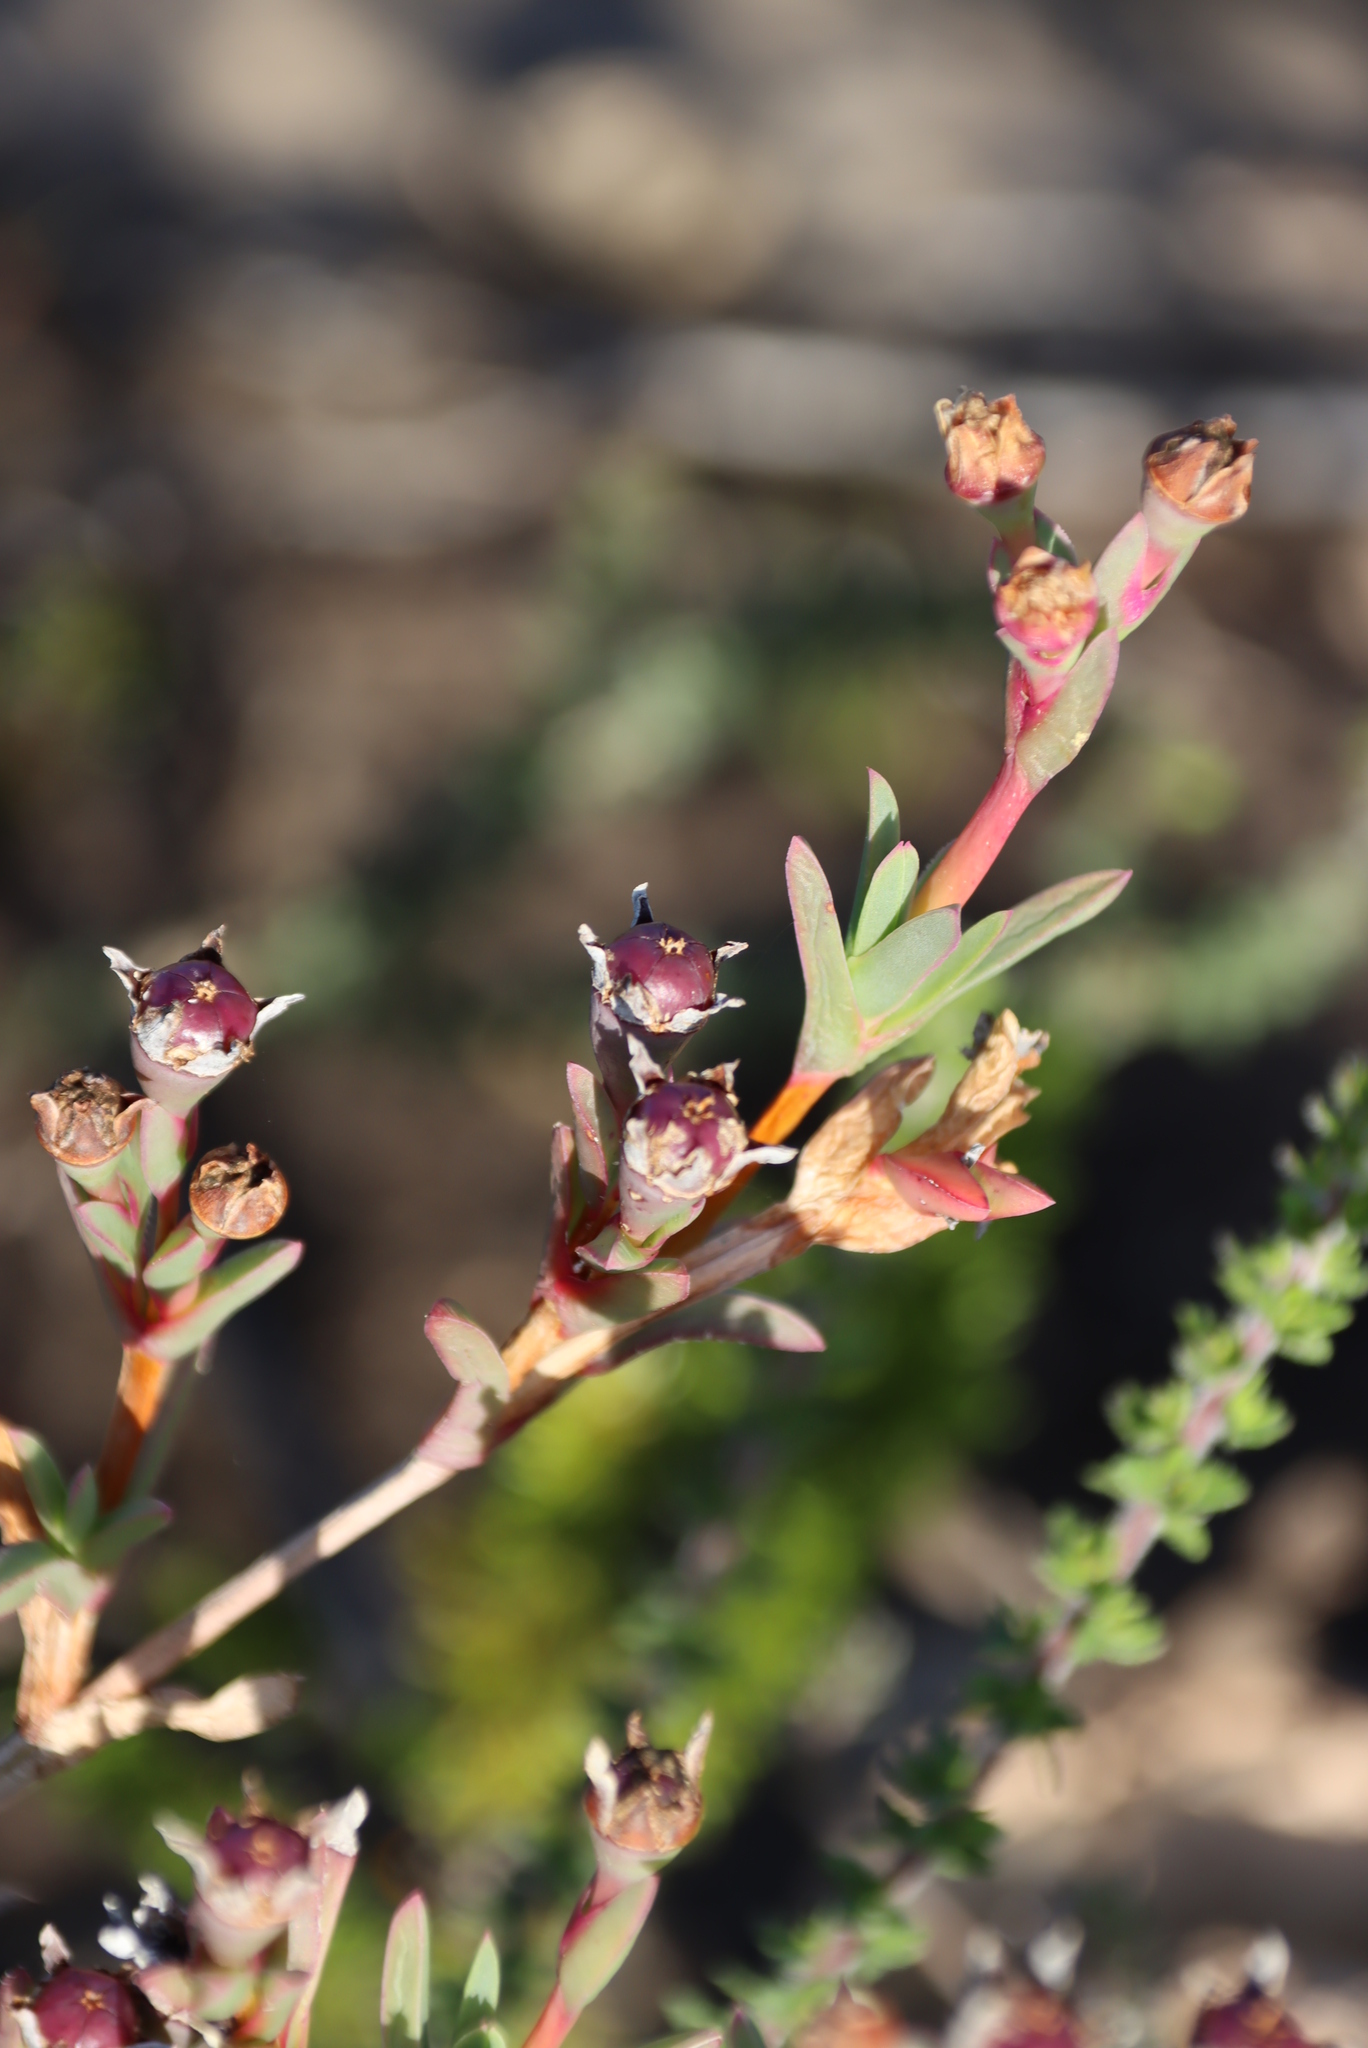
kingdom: Plantae
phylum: Tracheophyta
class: Magnoliopsida
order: Caryophyllales
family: Aizoaceae
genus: Ruschia
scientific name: Ruschia calcicola
